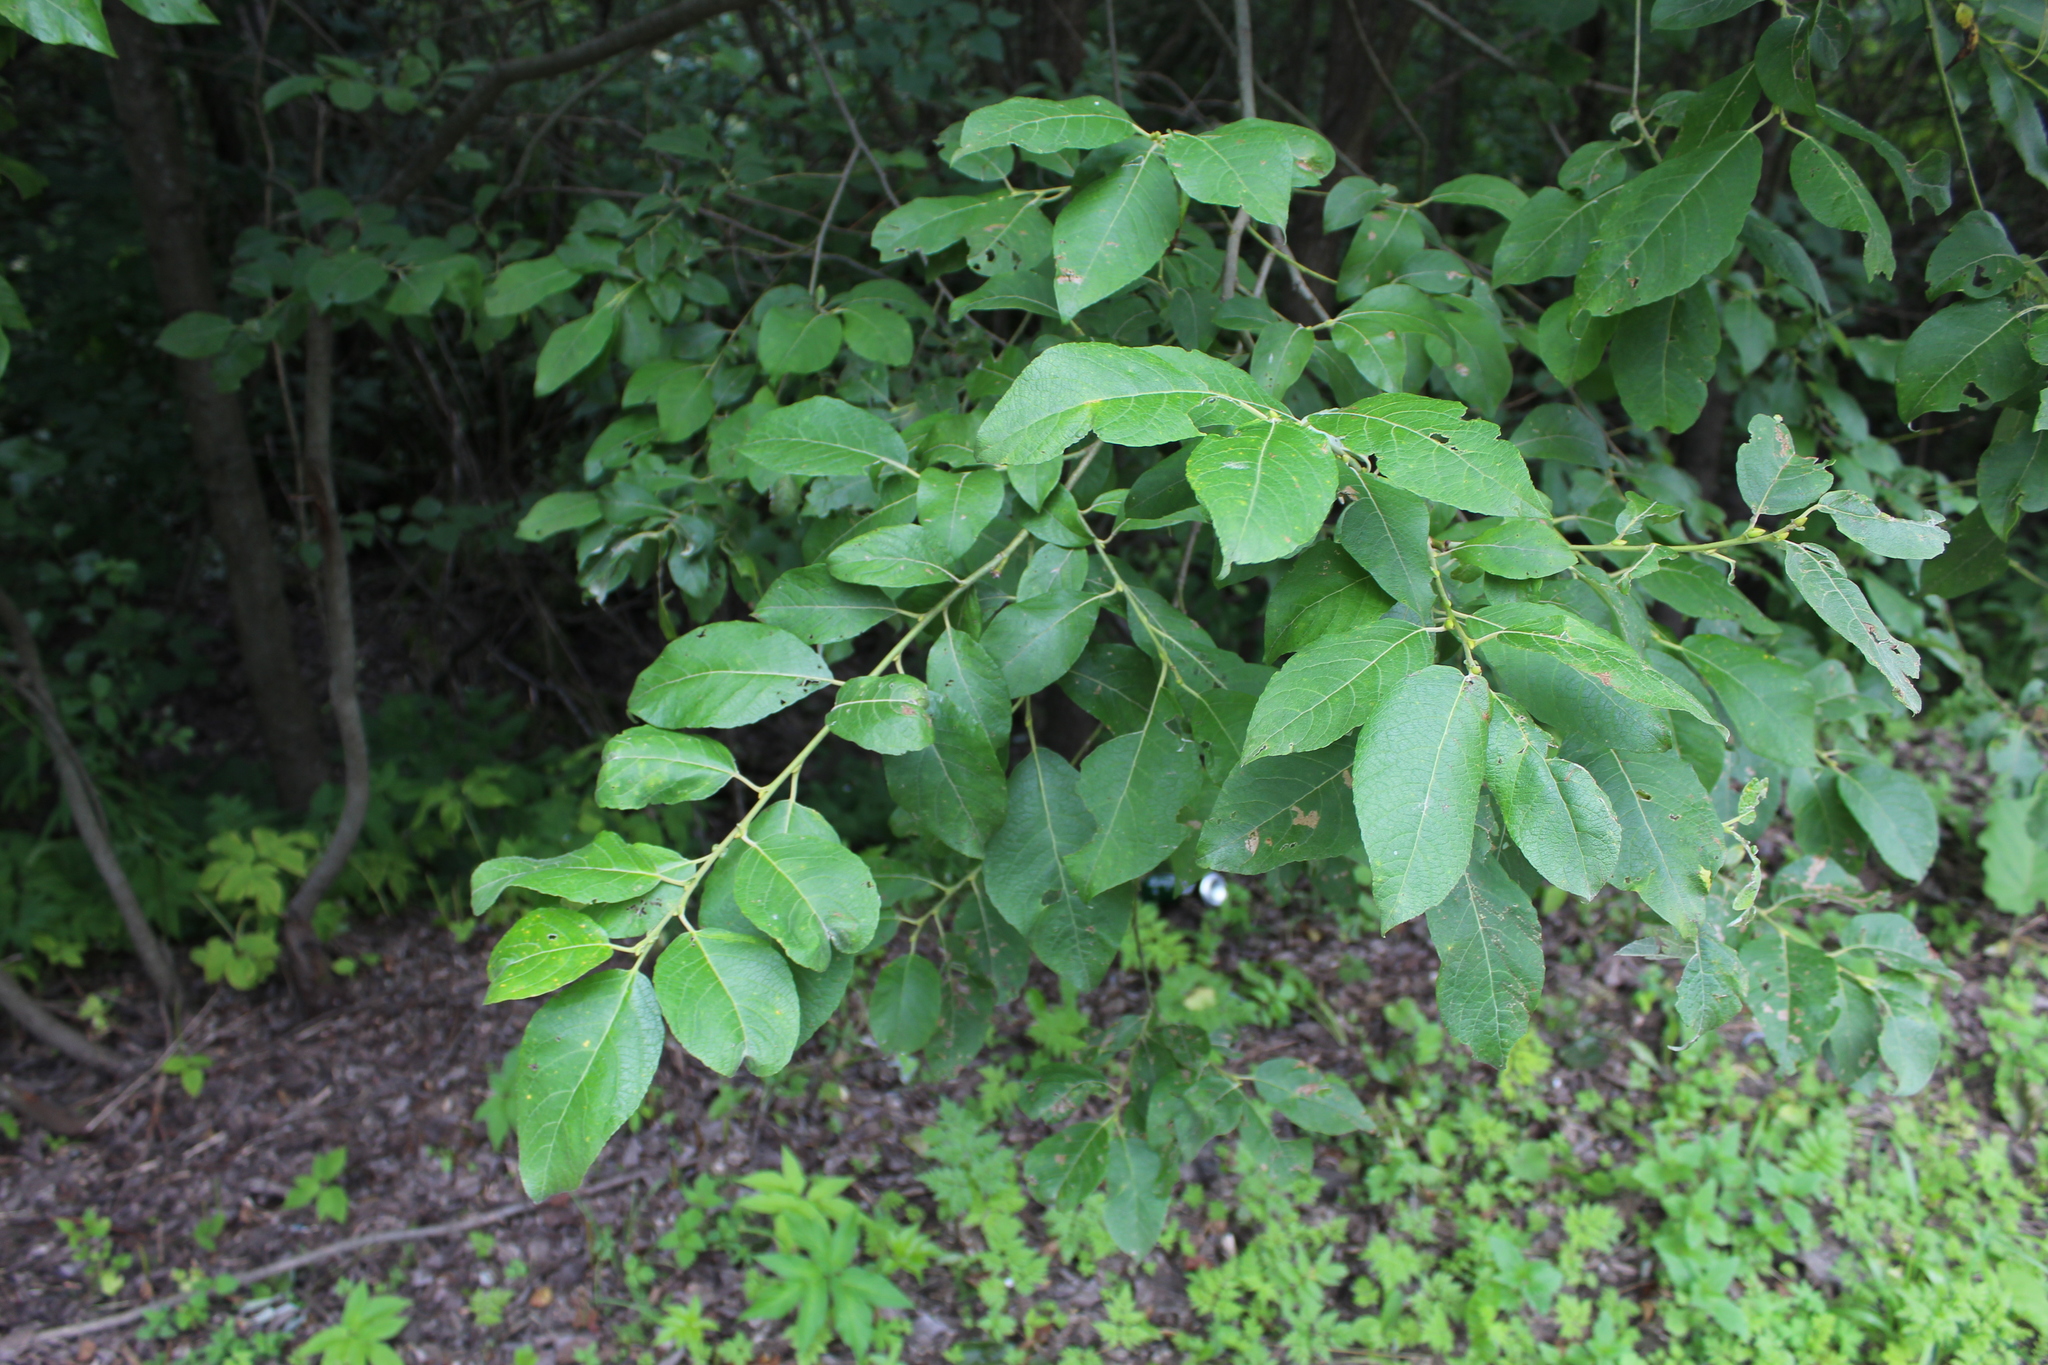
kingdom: Plantae
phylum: Tracheophyta
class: Magnoliopsida
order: Malpighiales
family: Salicaceae
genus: Salix
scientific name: Salix caprea
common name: Goat willow
